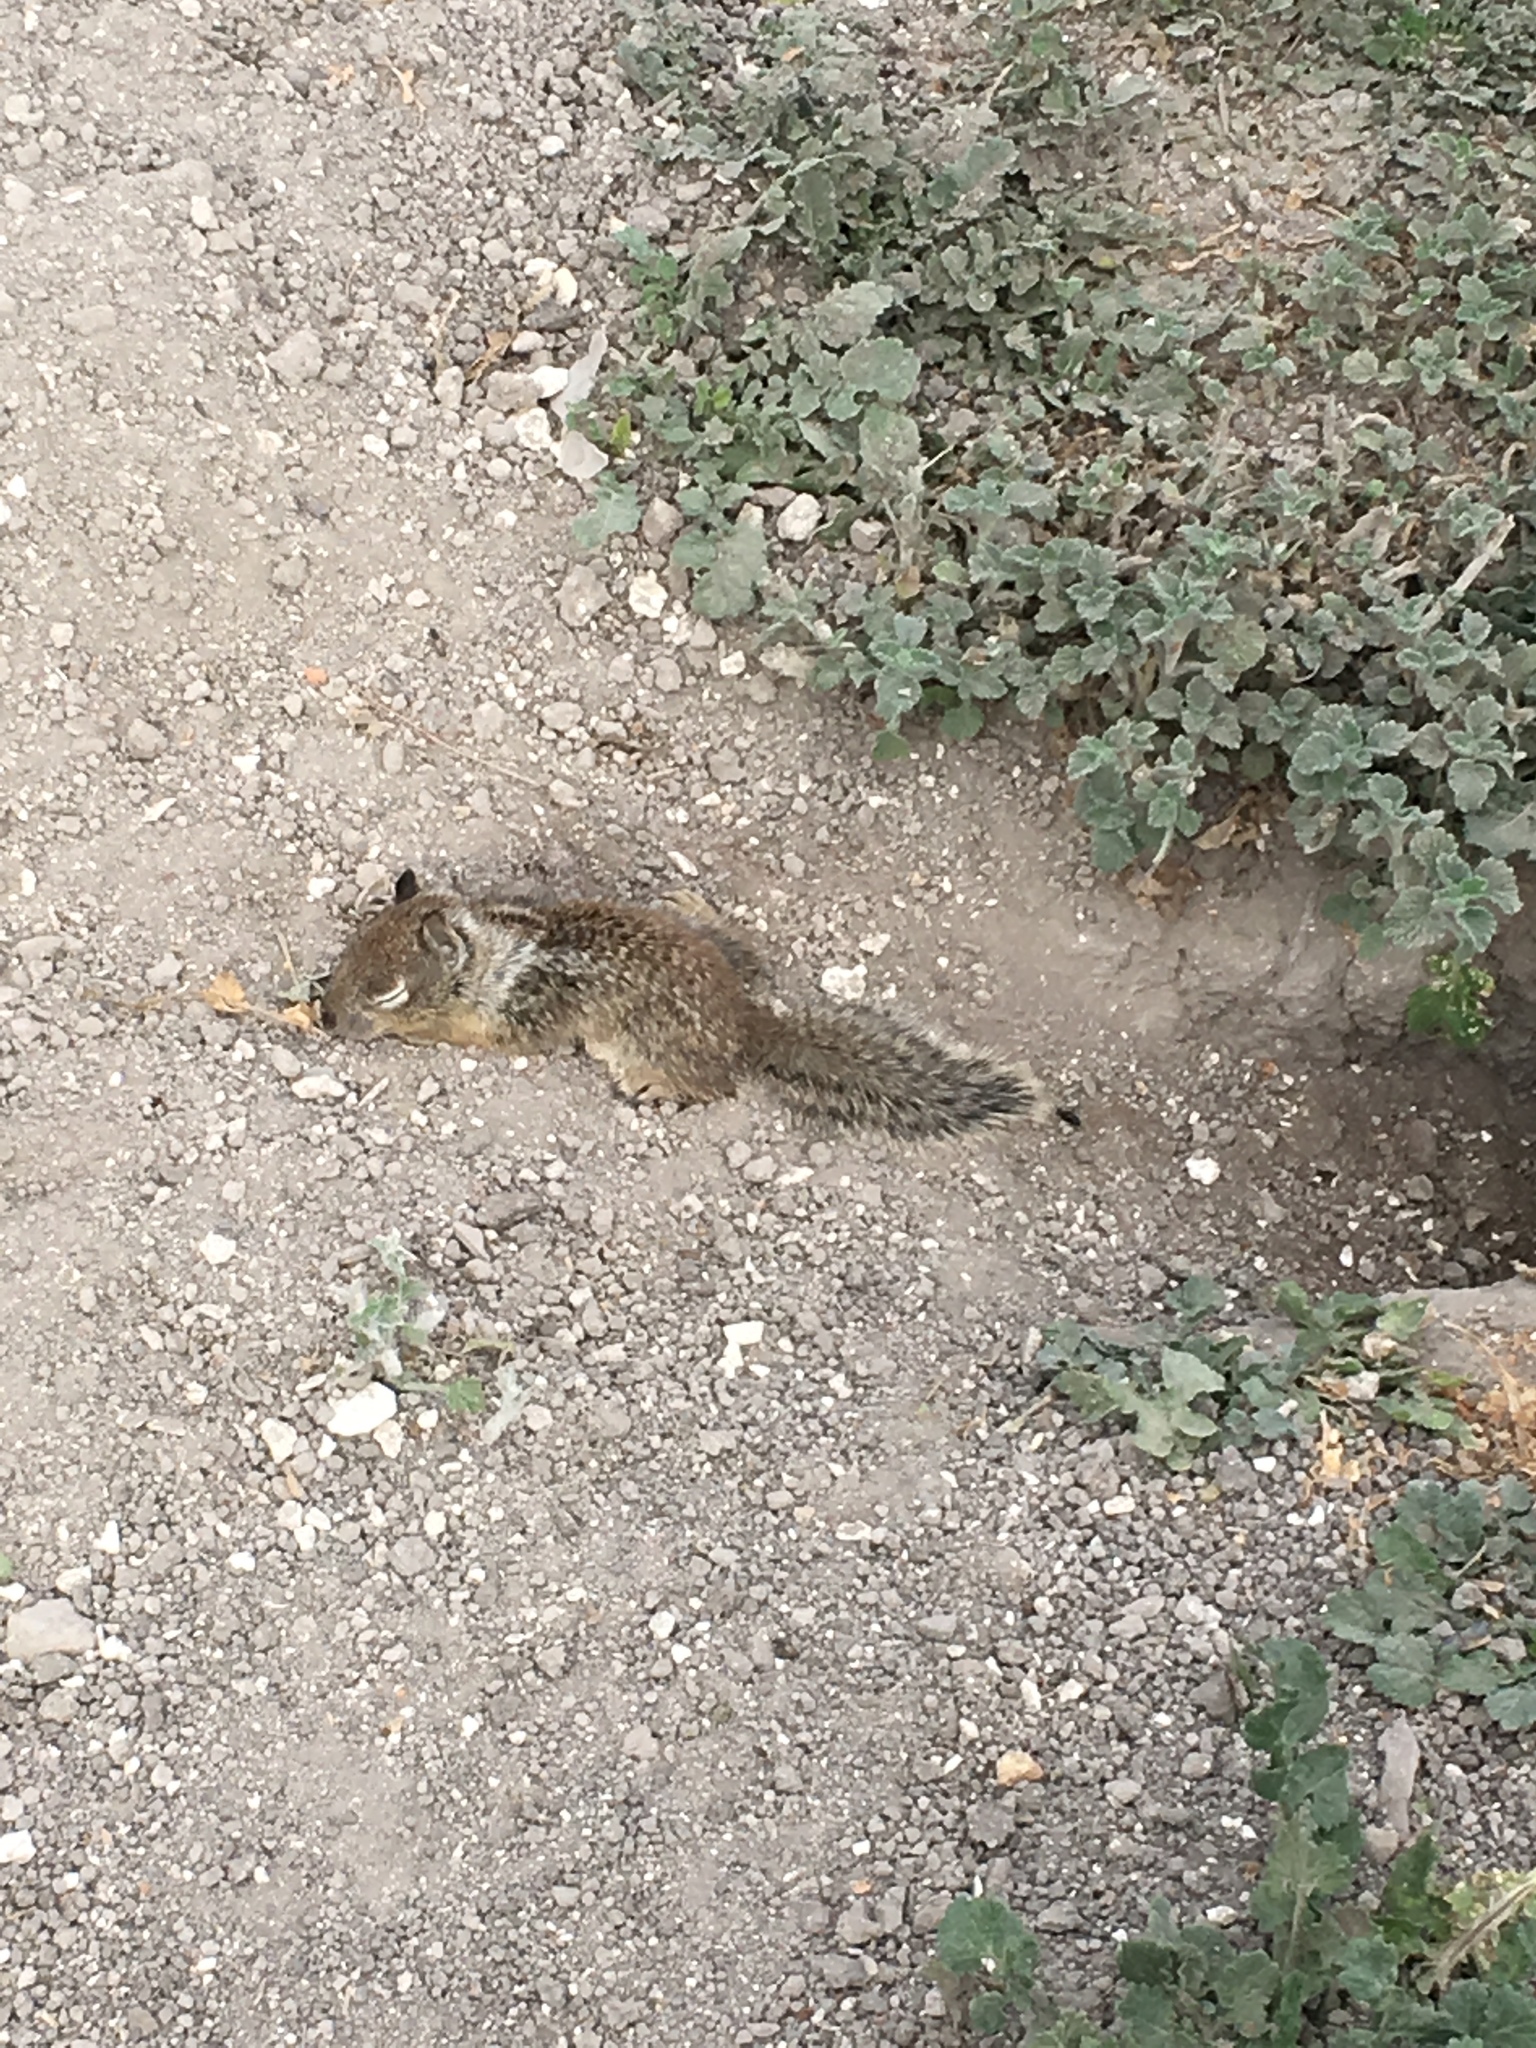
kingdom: Animalia
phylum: Chordata
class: Mammalia
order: Rodentia
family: Sciuridae
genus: Otospermophilus
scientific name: Otospermophilus beecheyi
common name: California ground squirrel
